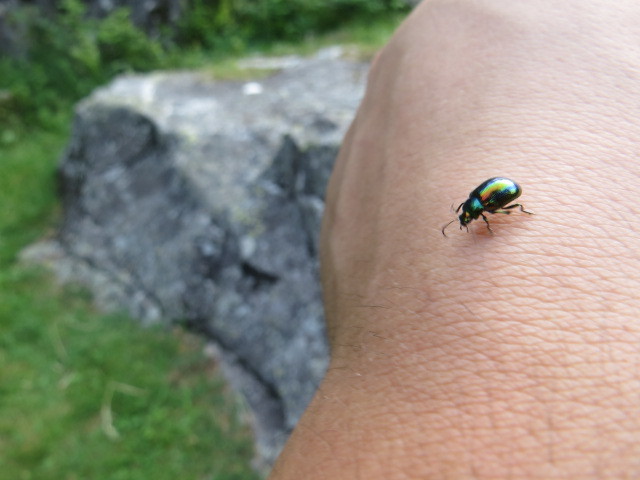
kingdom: Animalia
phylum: Arthropoda
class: Insecta
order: Coleoptera
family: Chrysomelidae
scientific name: Chrysomelidae
